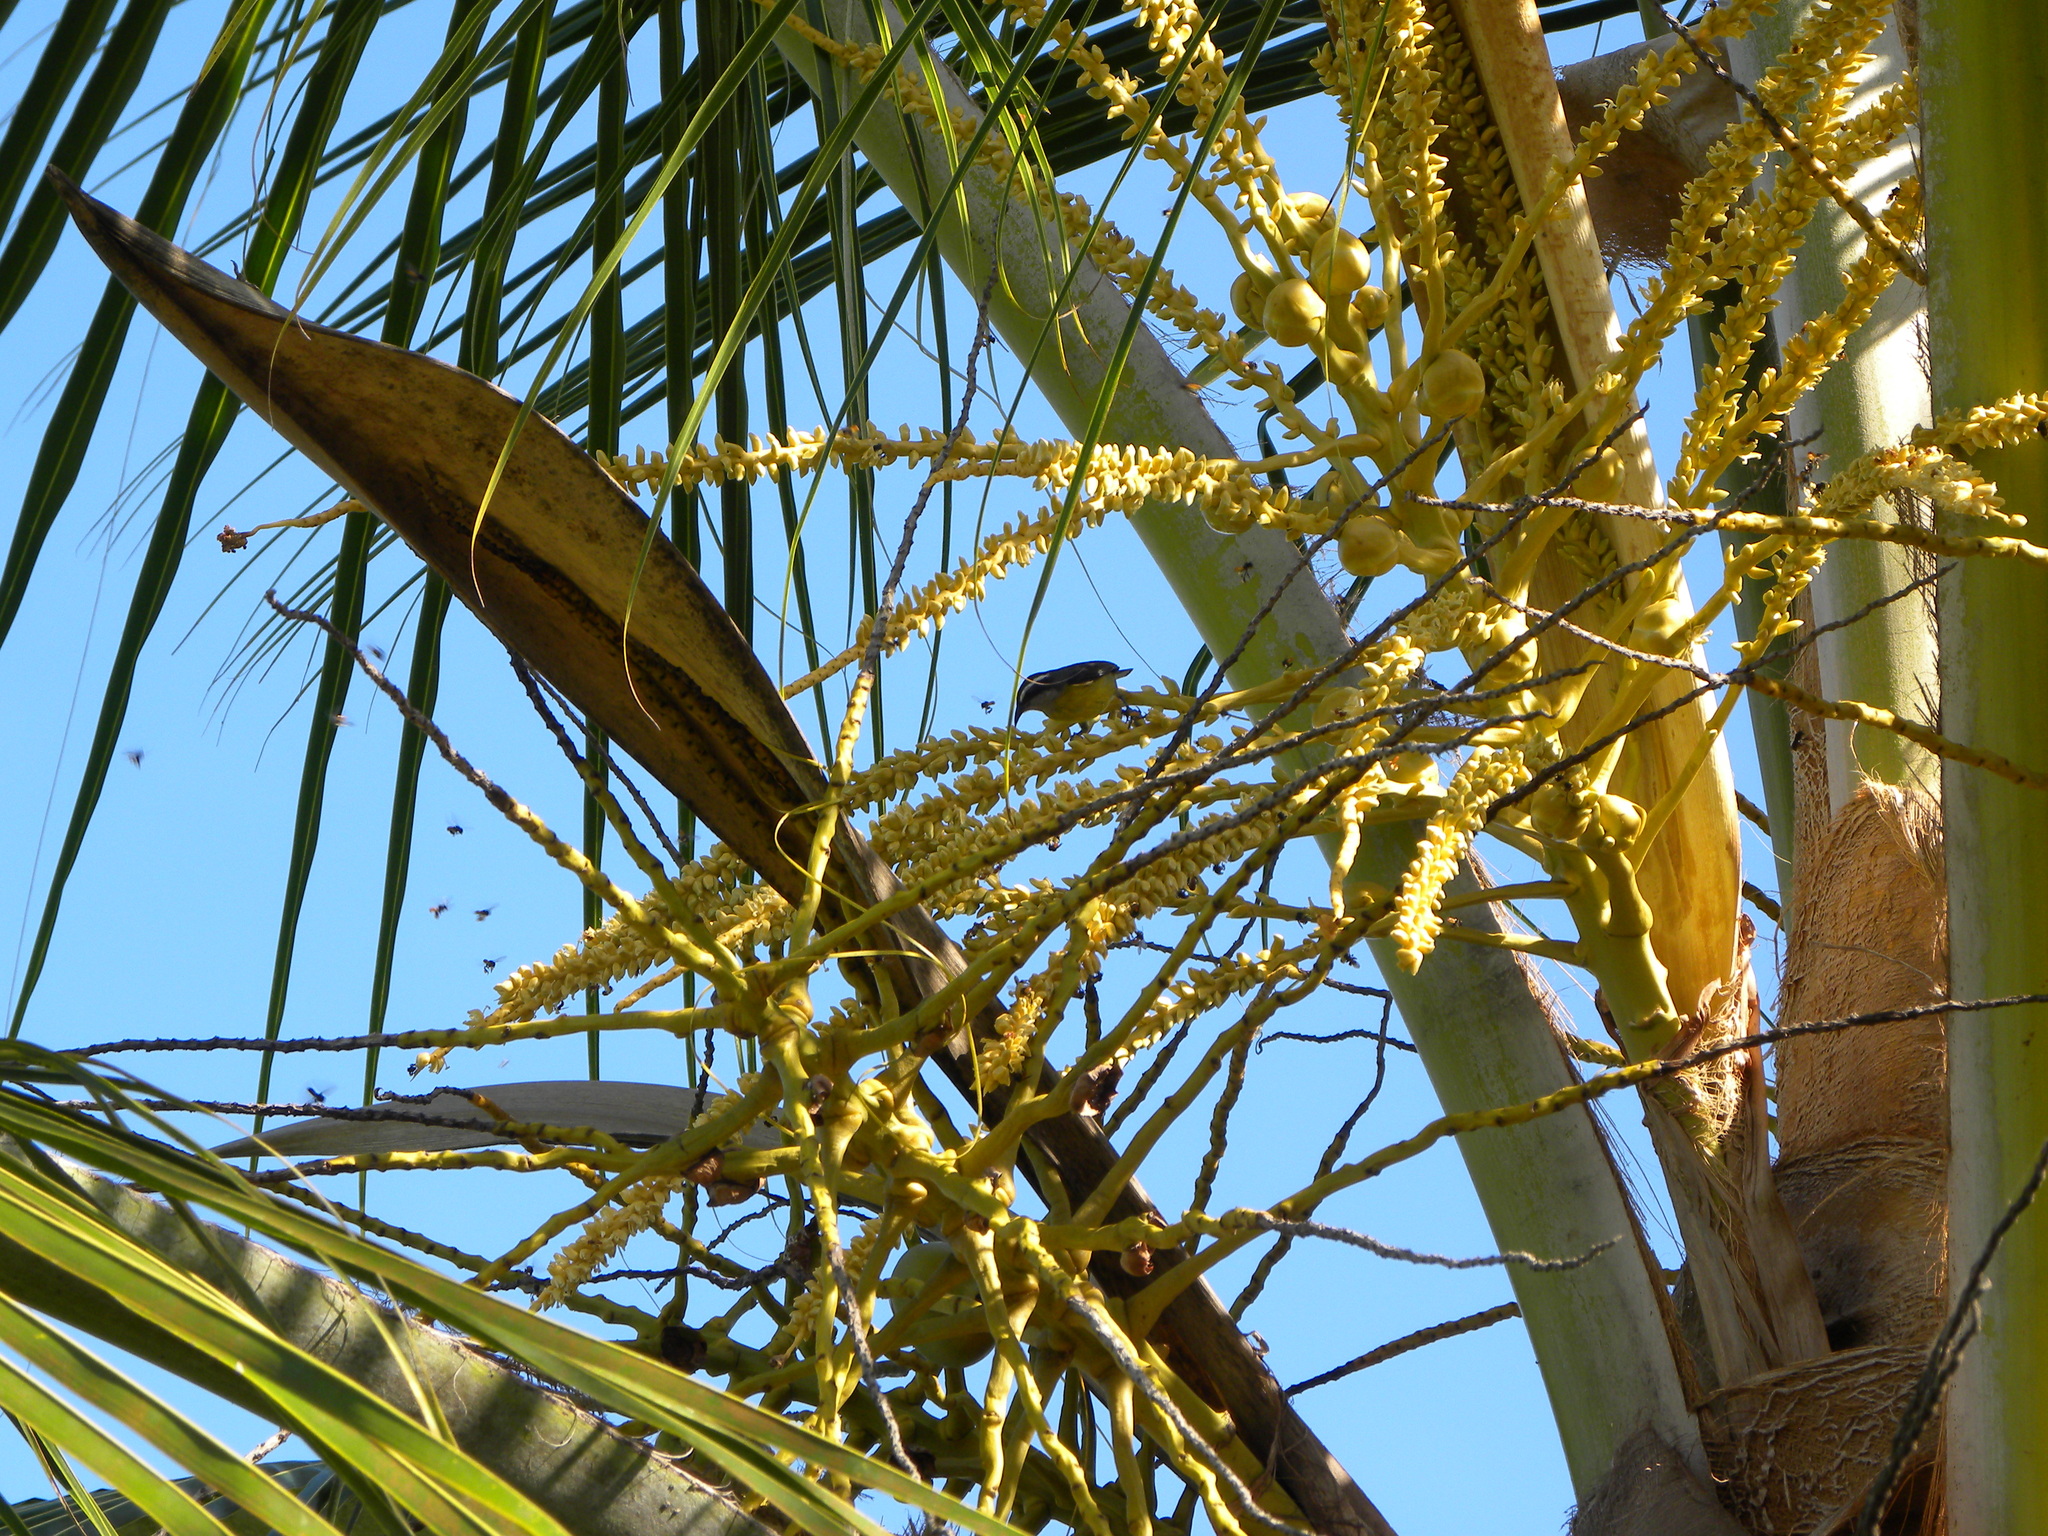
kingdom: Animalia
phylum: Chordata
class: Aves
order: Passeriformes
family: Thraupidae
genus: Coereba
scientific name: Coereba flaveola
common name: Bananaquit
